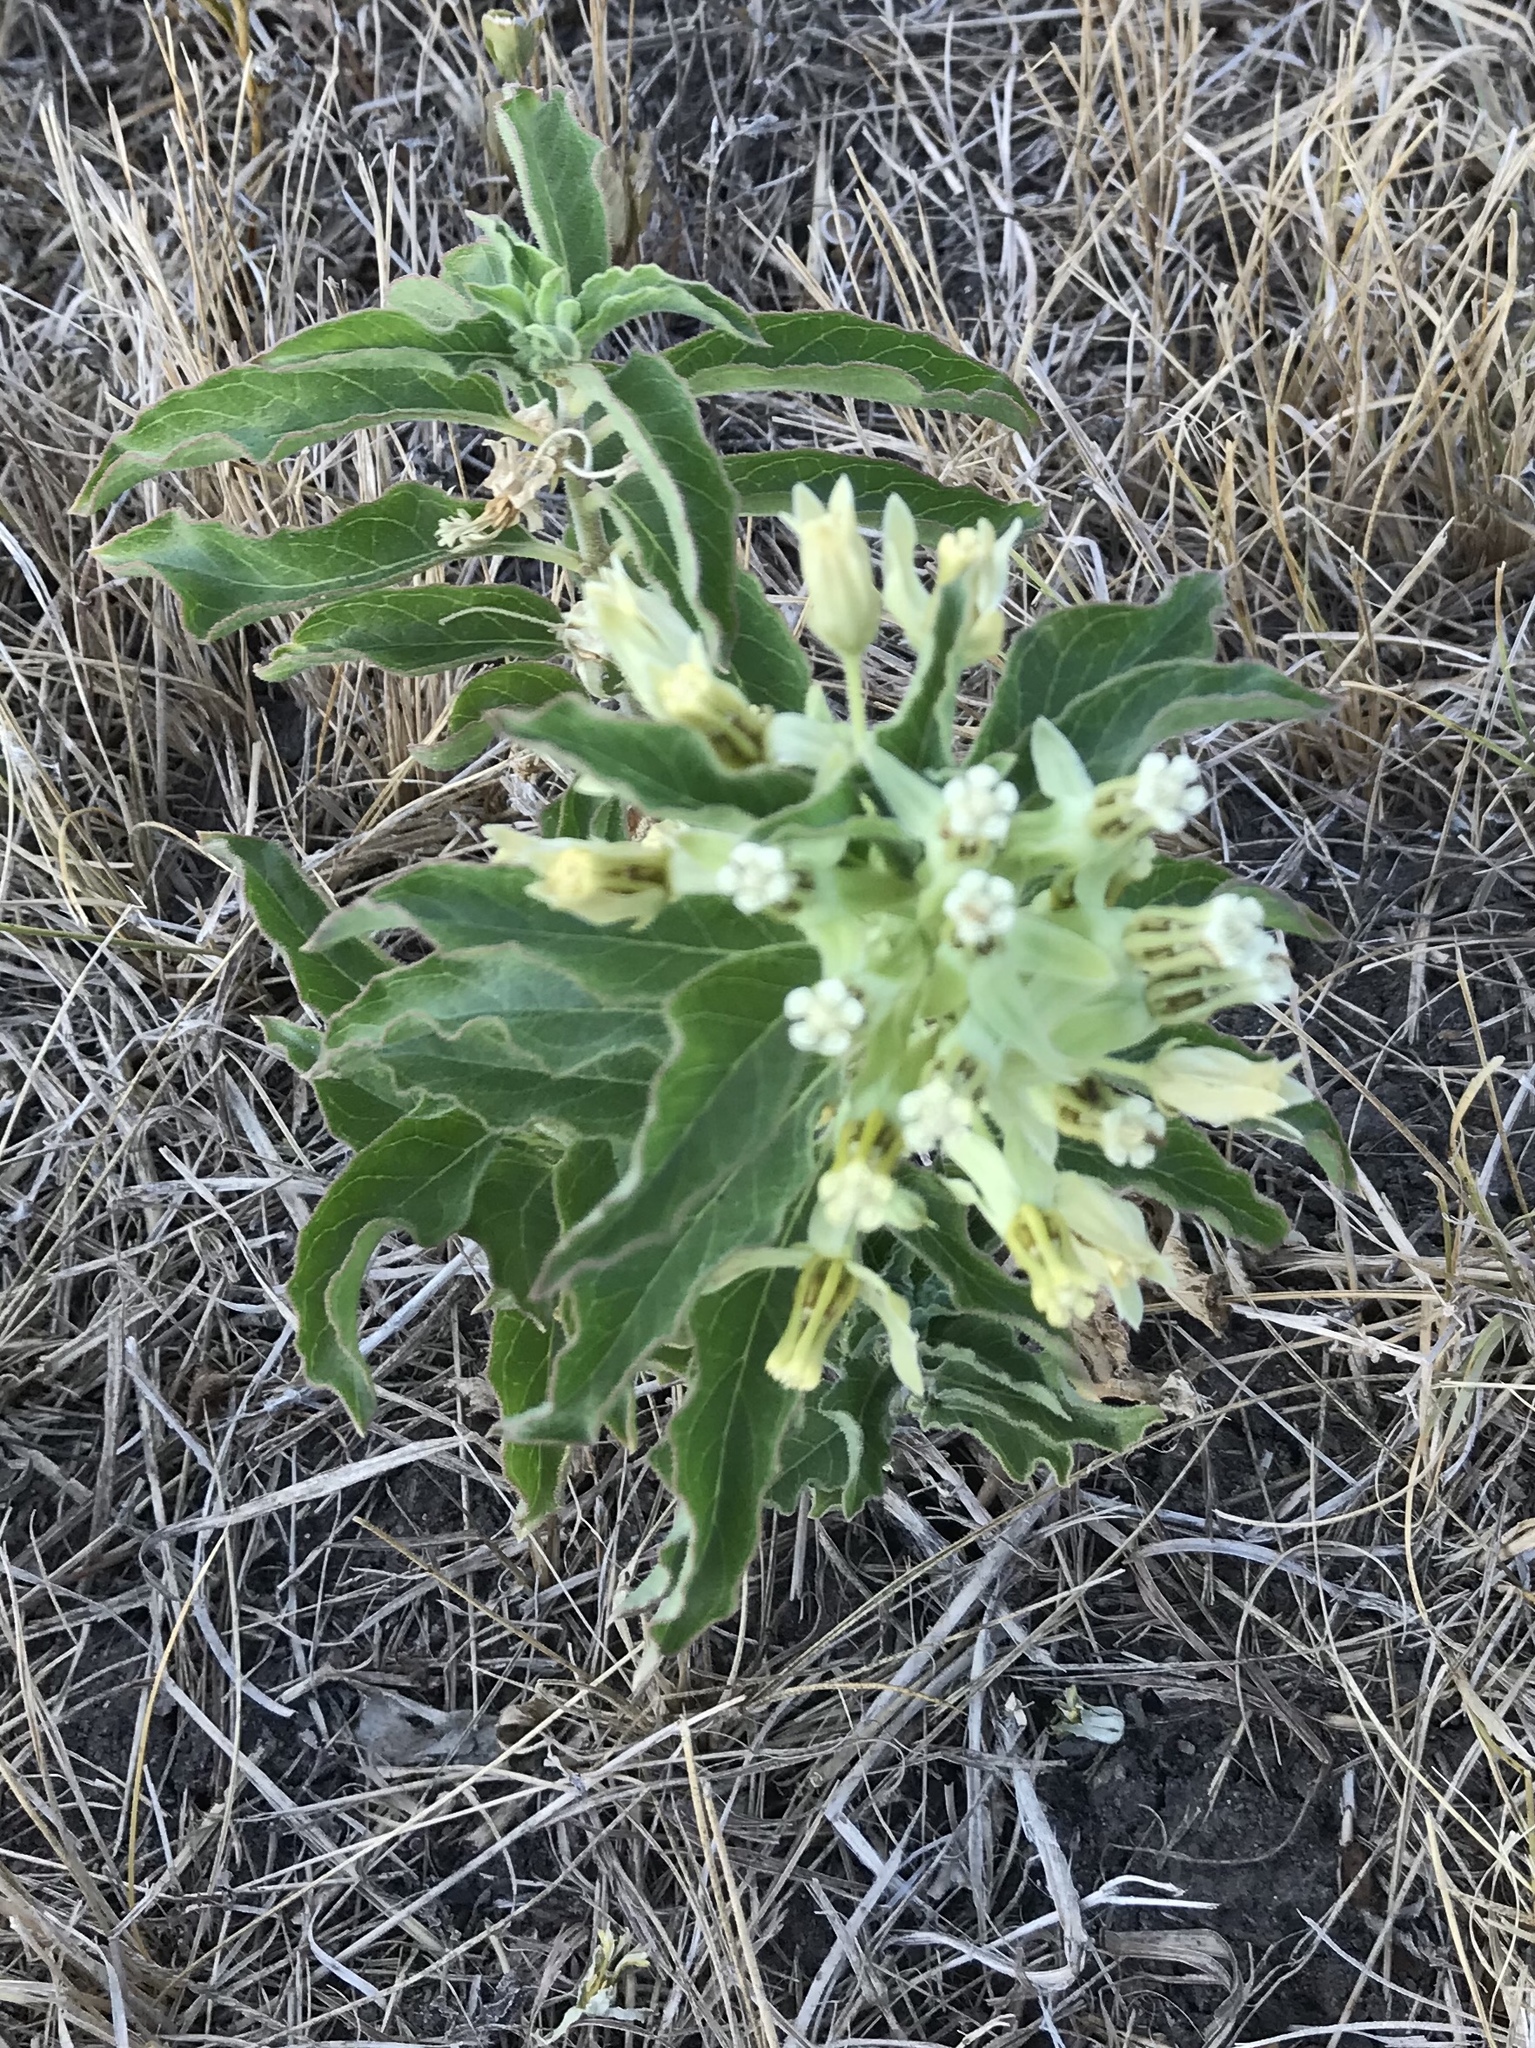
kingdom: Plantae
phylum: Tracheophyta
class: Magnoliopsida
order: Gentianales
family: Apocynaceae
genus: Asclepias
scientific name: Asclepias oenotheroides
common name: Zizotes milkweed
